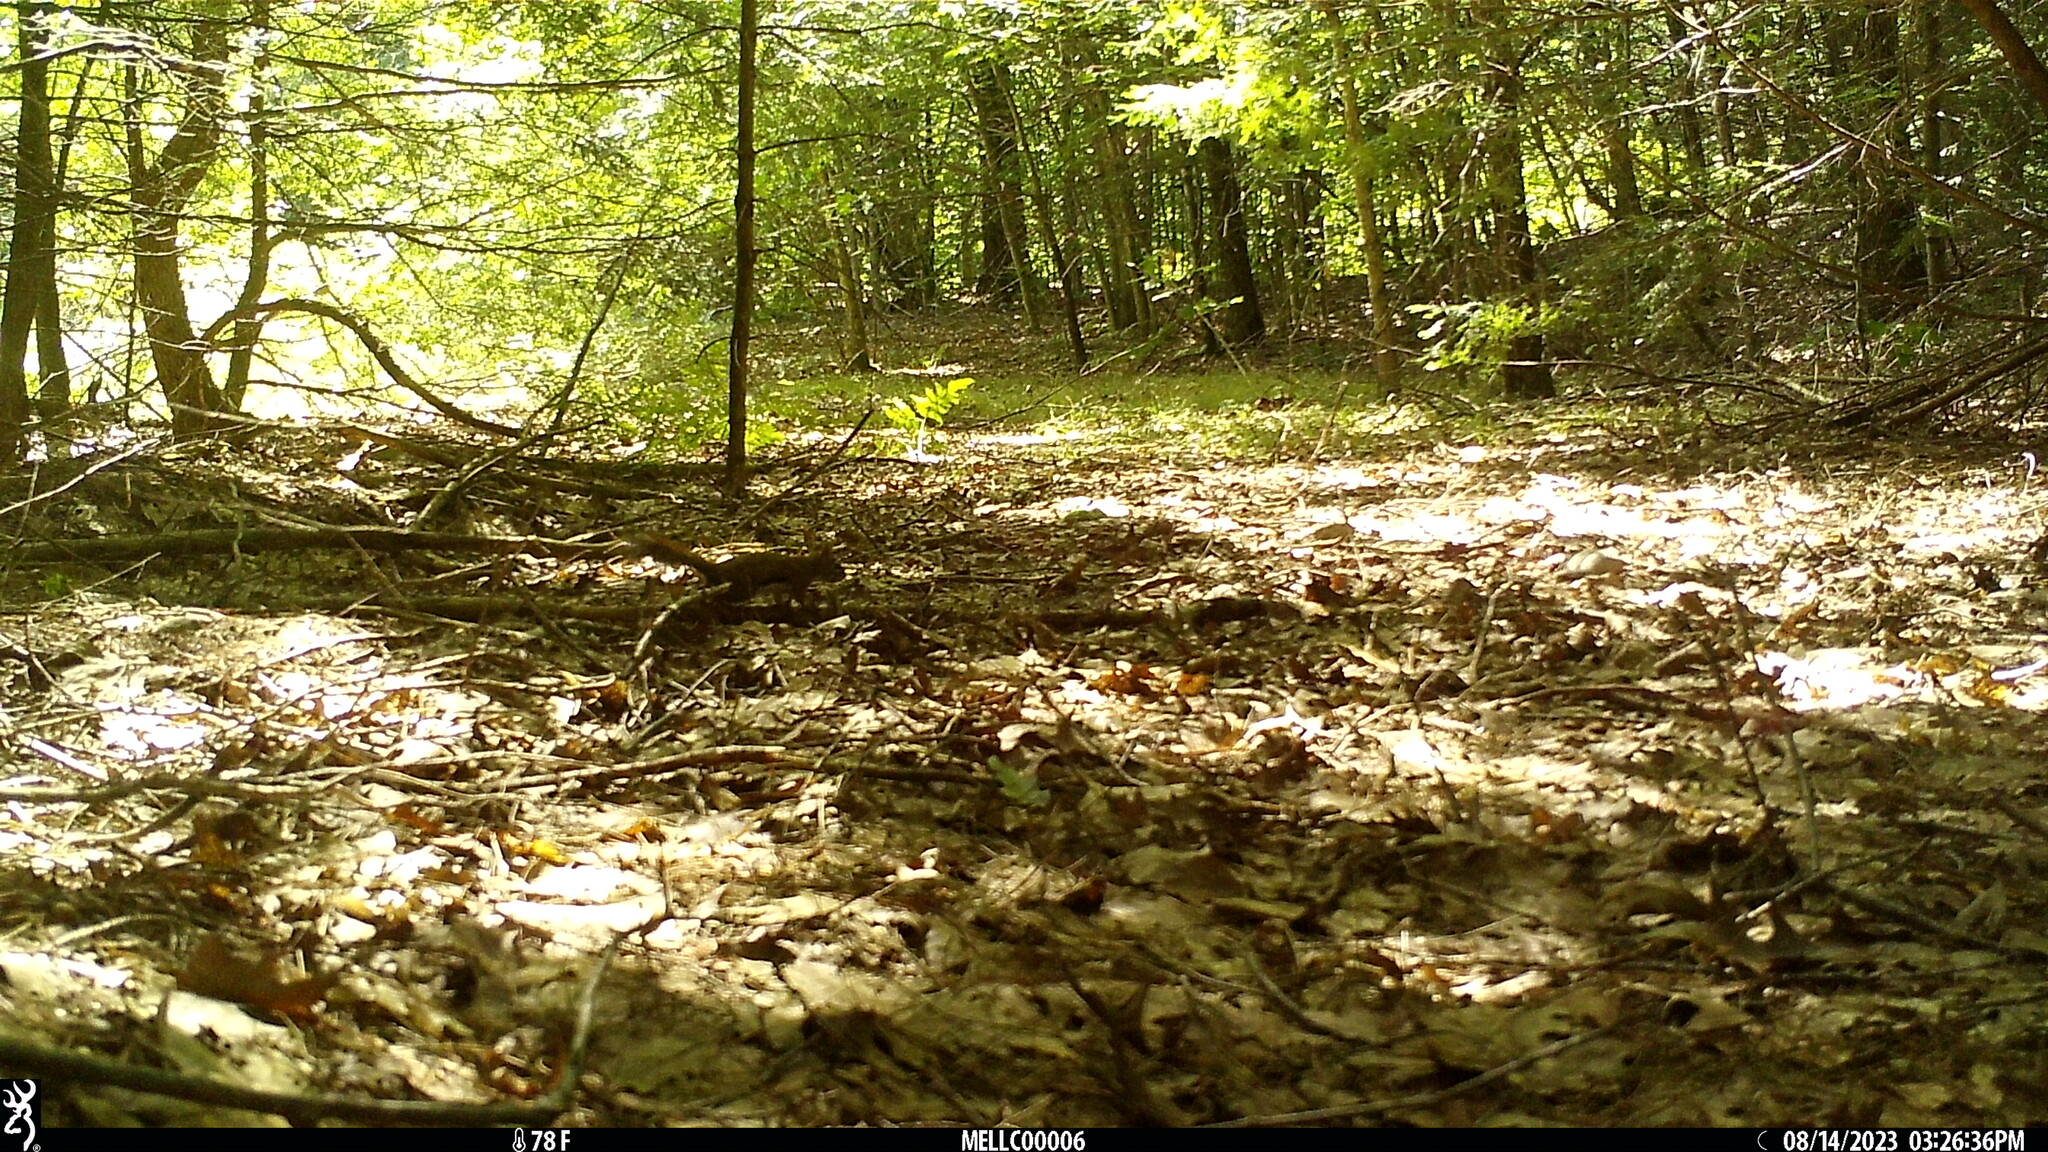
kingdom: Animalia
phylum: Chordata
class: Mammalia
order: Rodentia
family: Sciuridae
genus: Tamiasciurus
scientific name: Tamiasciurus hudsonicus
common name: Red squirrel
